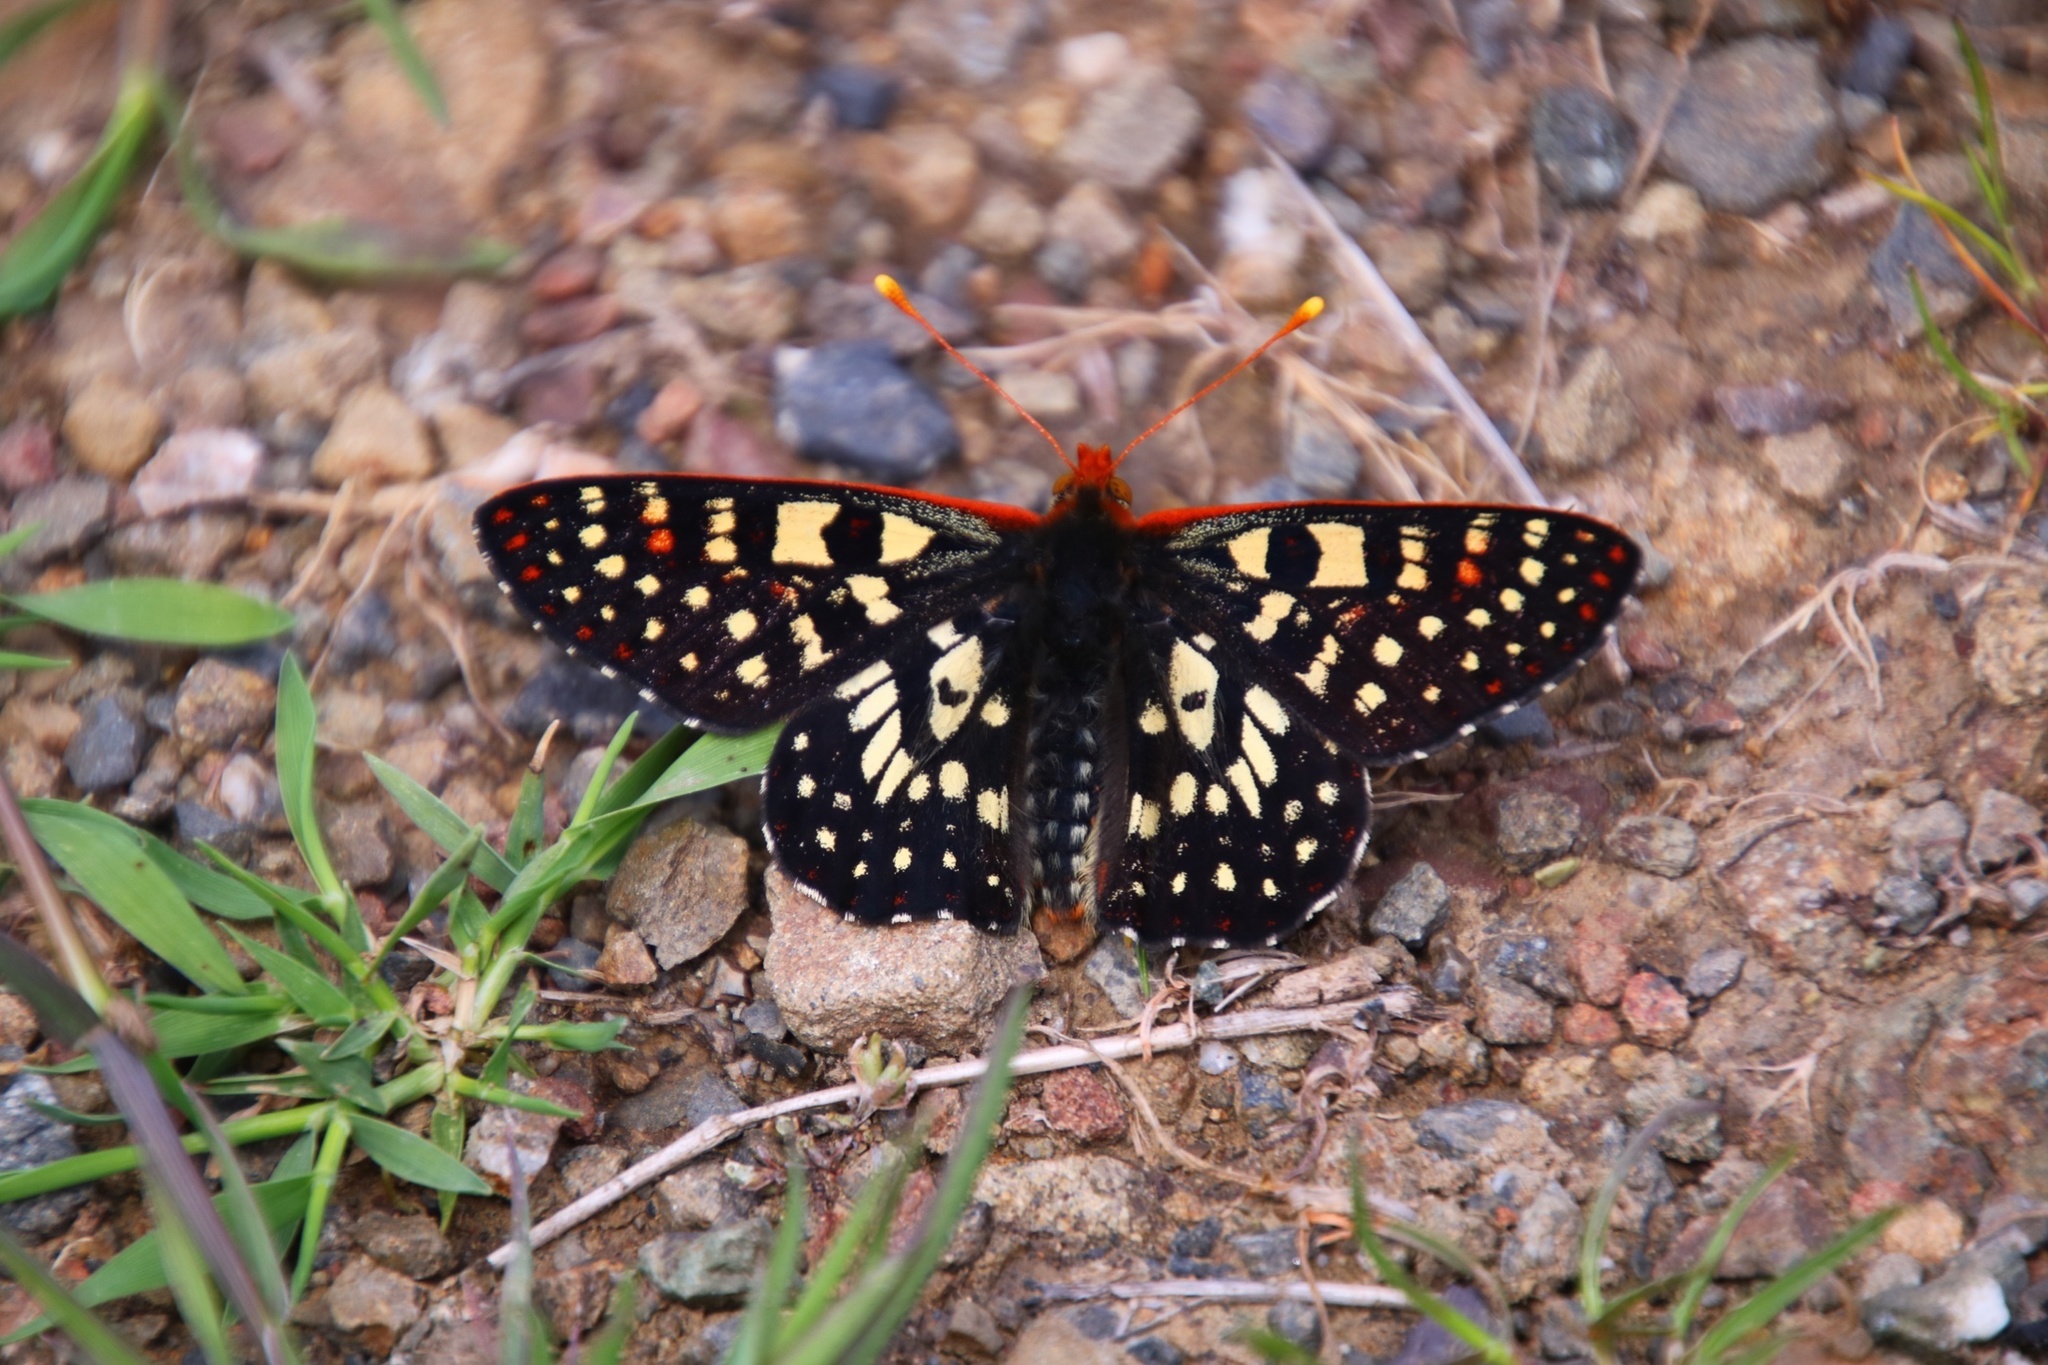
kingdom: Animalia
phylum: Arthropoda
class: Insecta
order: Lepidoptera
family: Nymphalidae
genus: Occidryas
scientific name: Occidryas chalcedona
